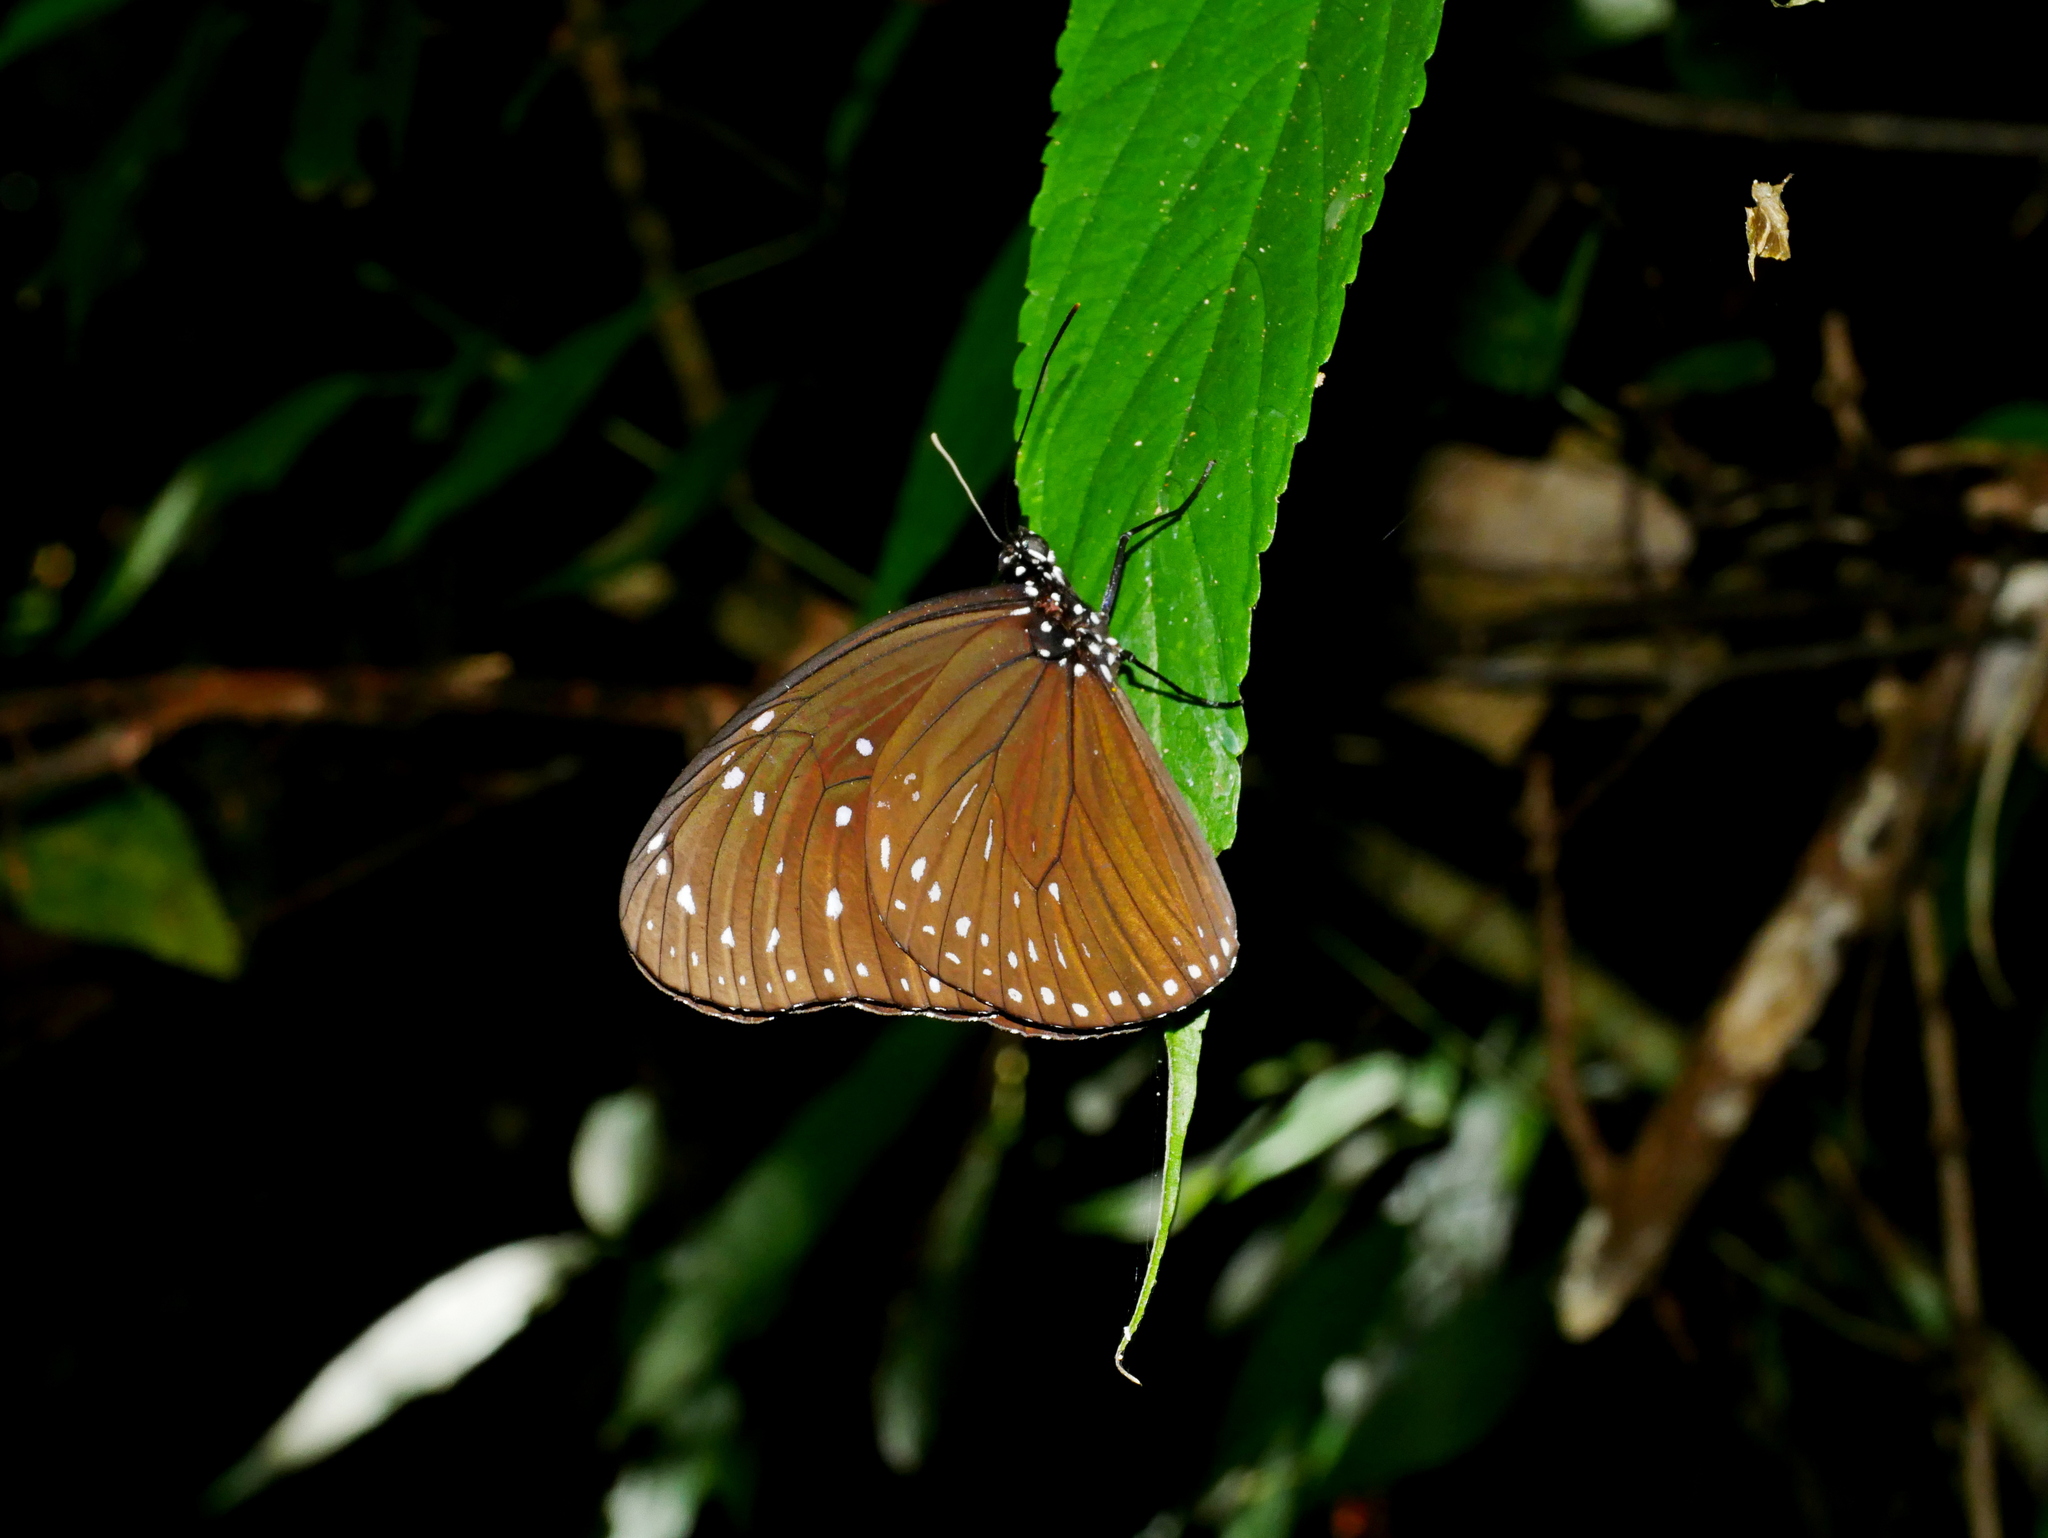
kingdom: Animalia
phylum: Arthropoda
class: Insecta
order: Lepidoptera
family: Nymphalidae
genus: Euploea
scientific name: Euploea mulciber
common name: Striped blue crow butterfly
